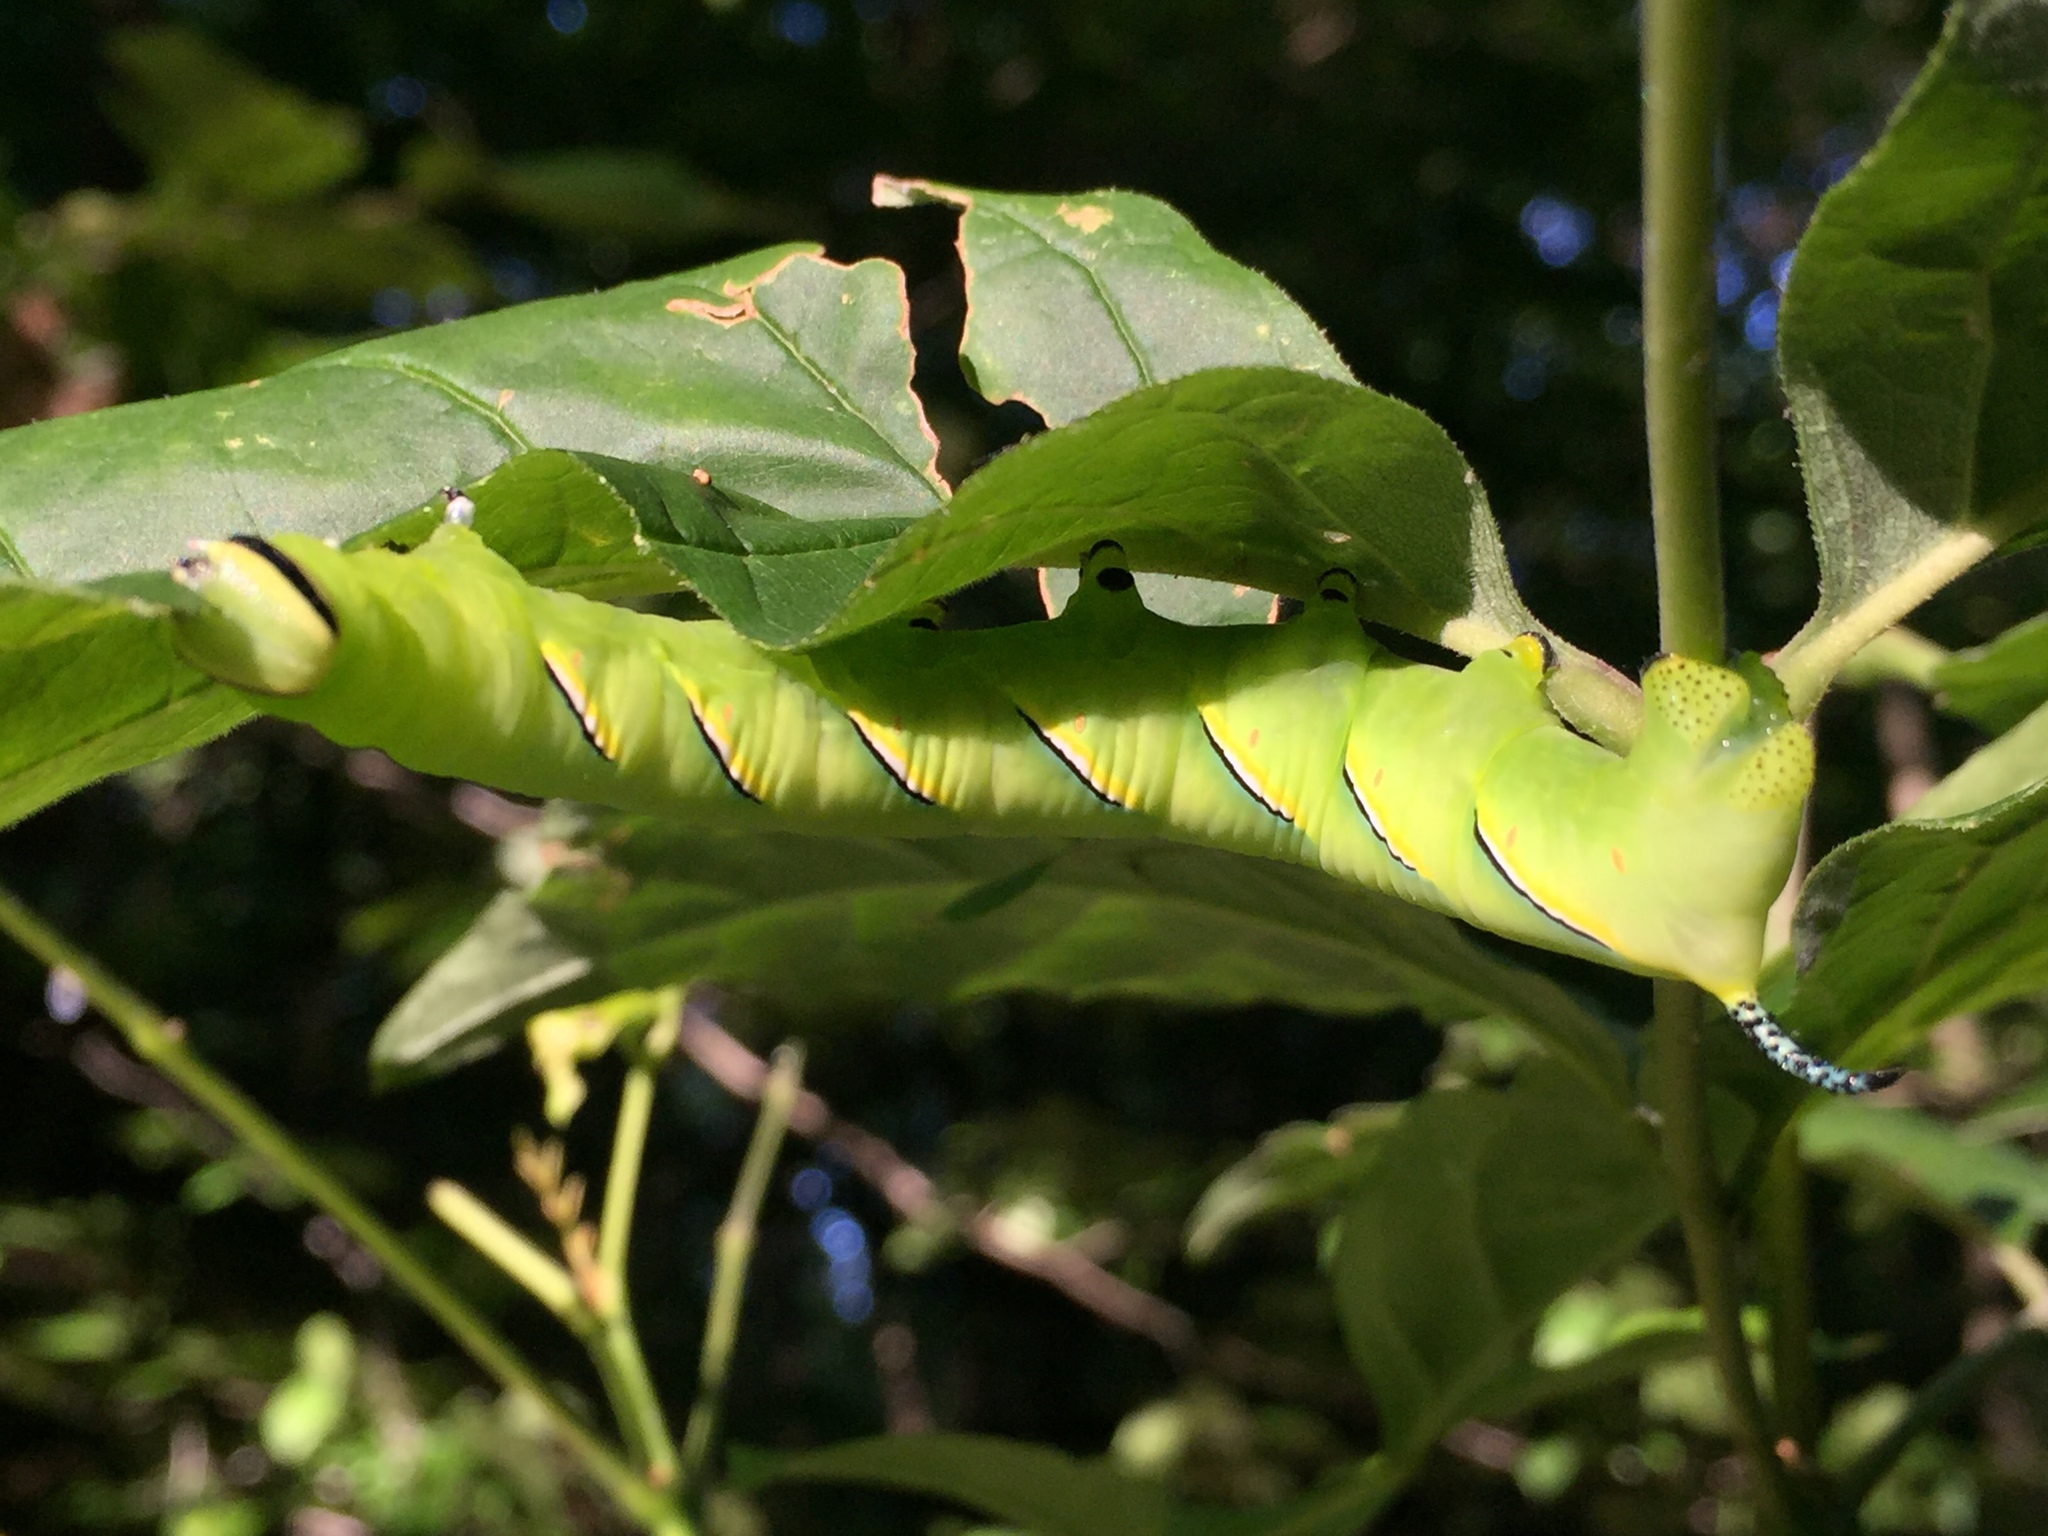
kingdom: Animalia
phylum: Arthropoda
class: Insecta
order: Lepidoptera
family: Sphingidae
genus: Sphinx
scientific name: Sphinx kalmiae
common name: Laurel sphinx
